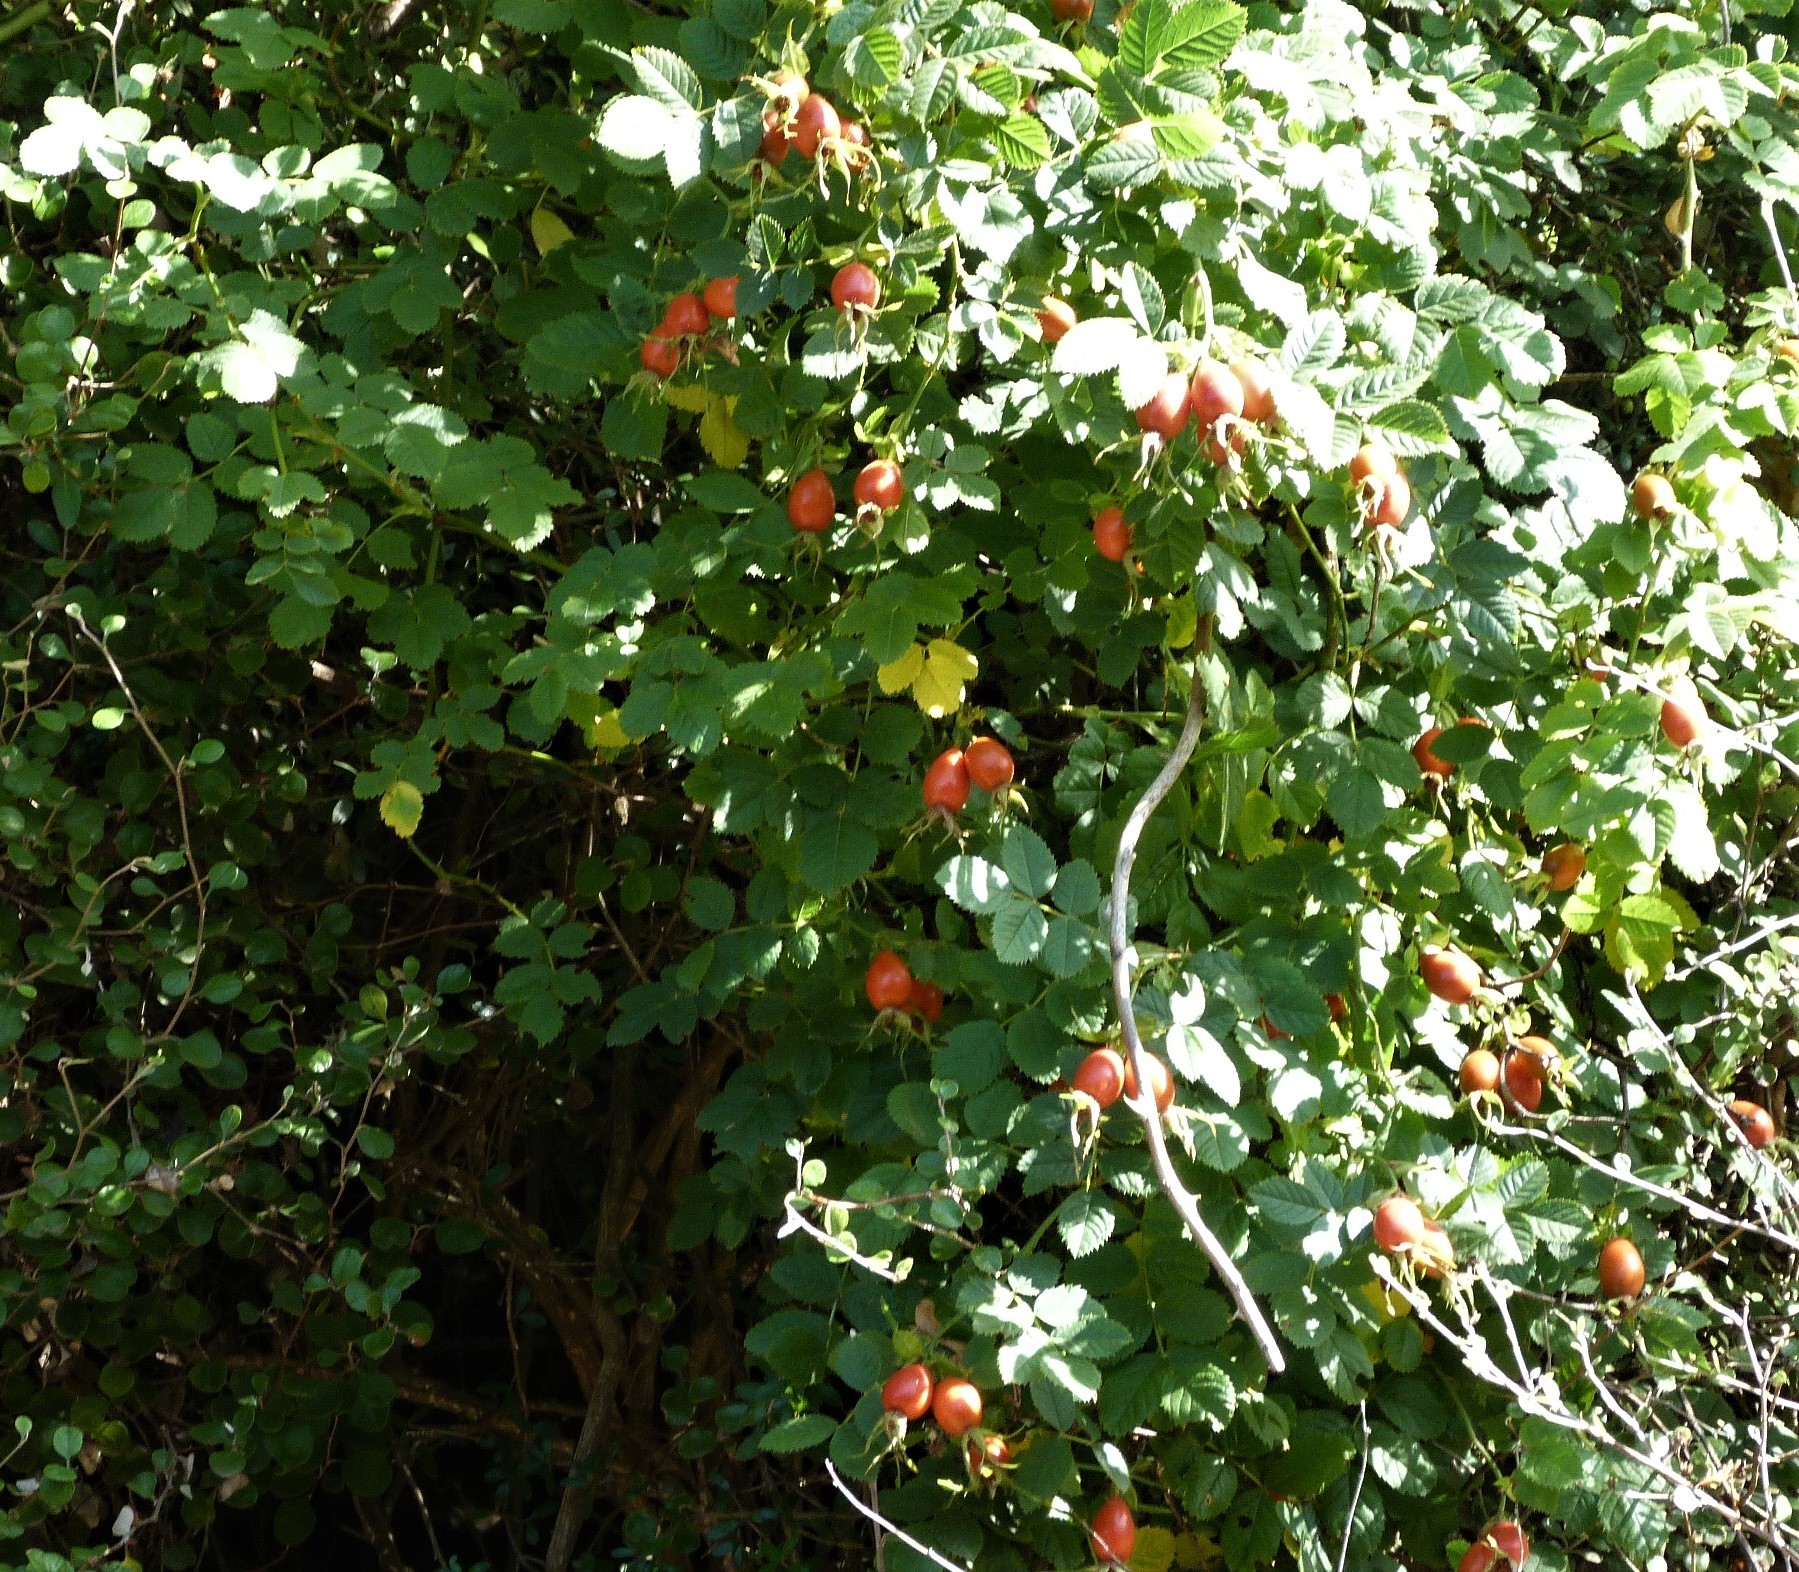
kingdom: Plantae
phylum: Tracheophyta
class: Magnoliopsida
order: Rosales
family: Rosaceae
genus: Rosa
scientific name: Rosa rubiginosa
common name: Sweet-briar
